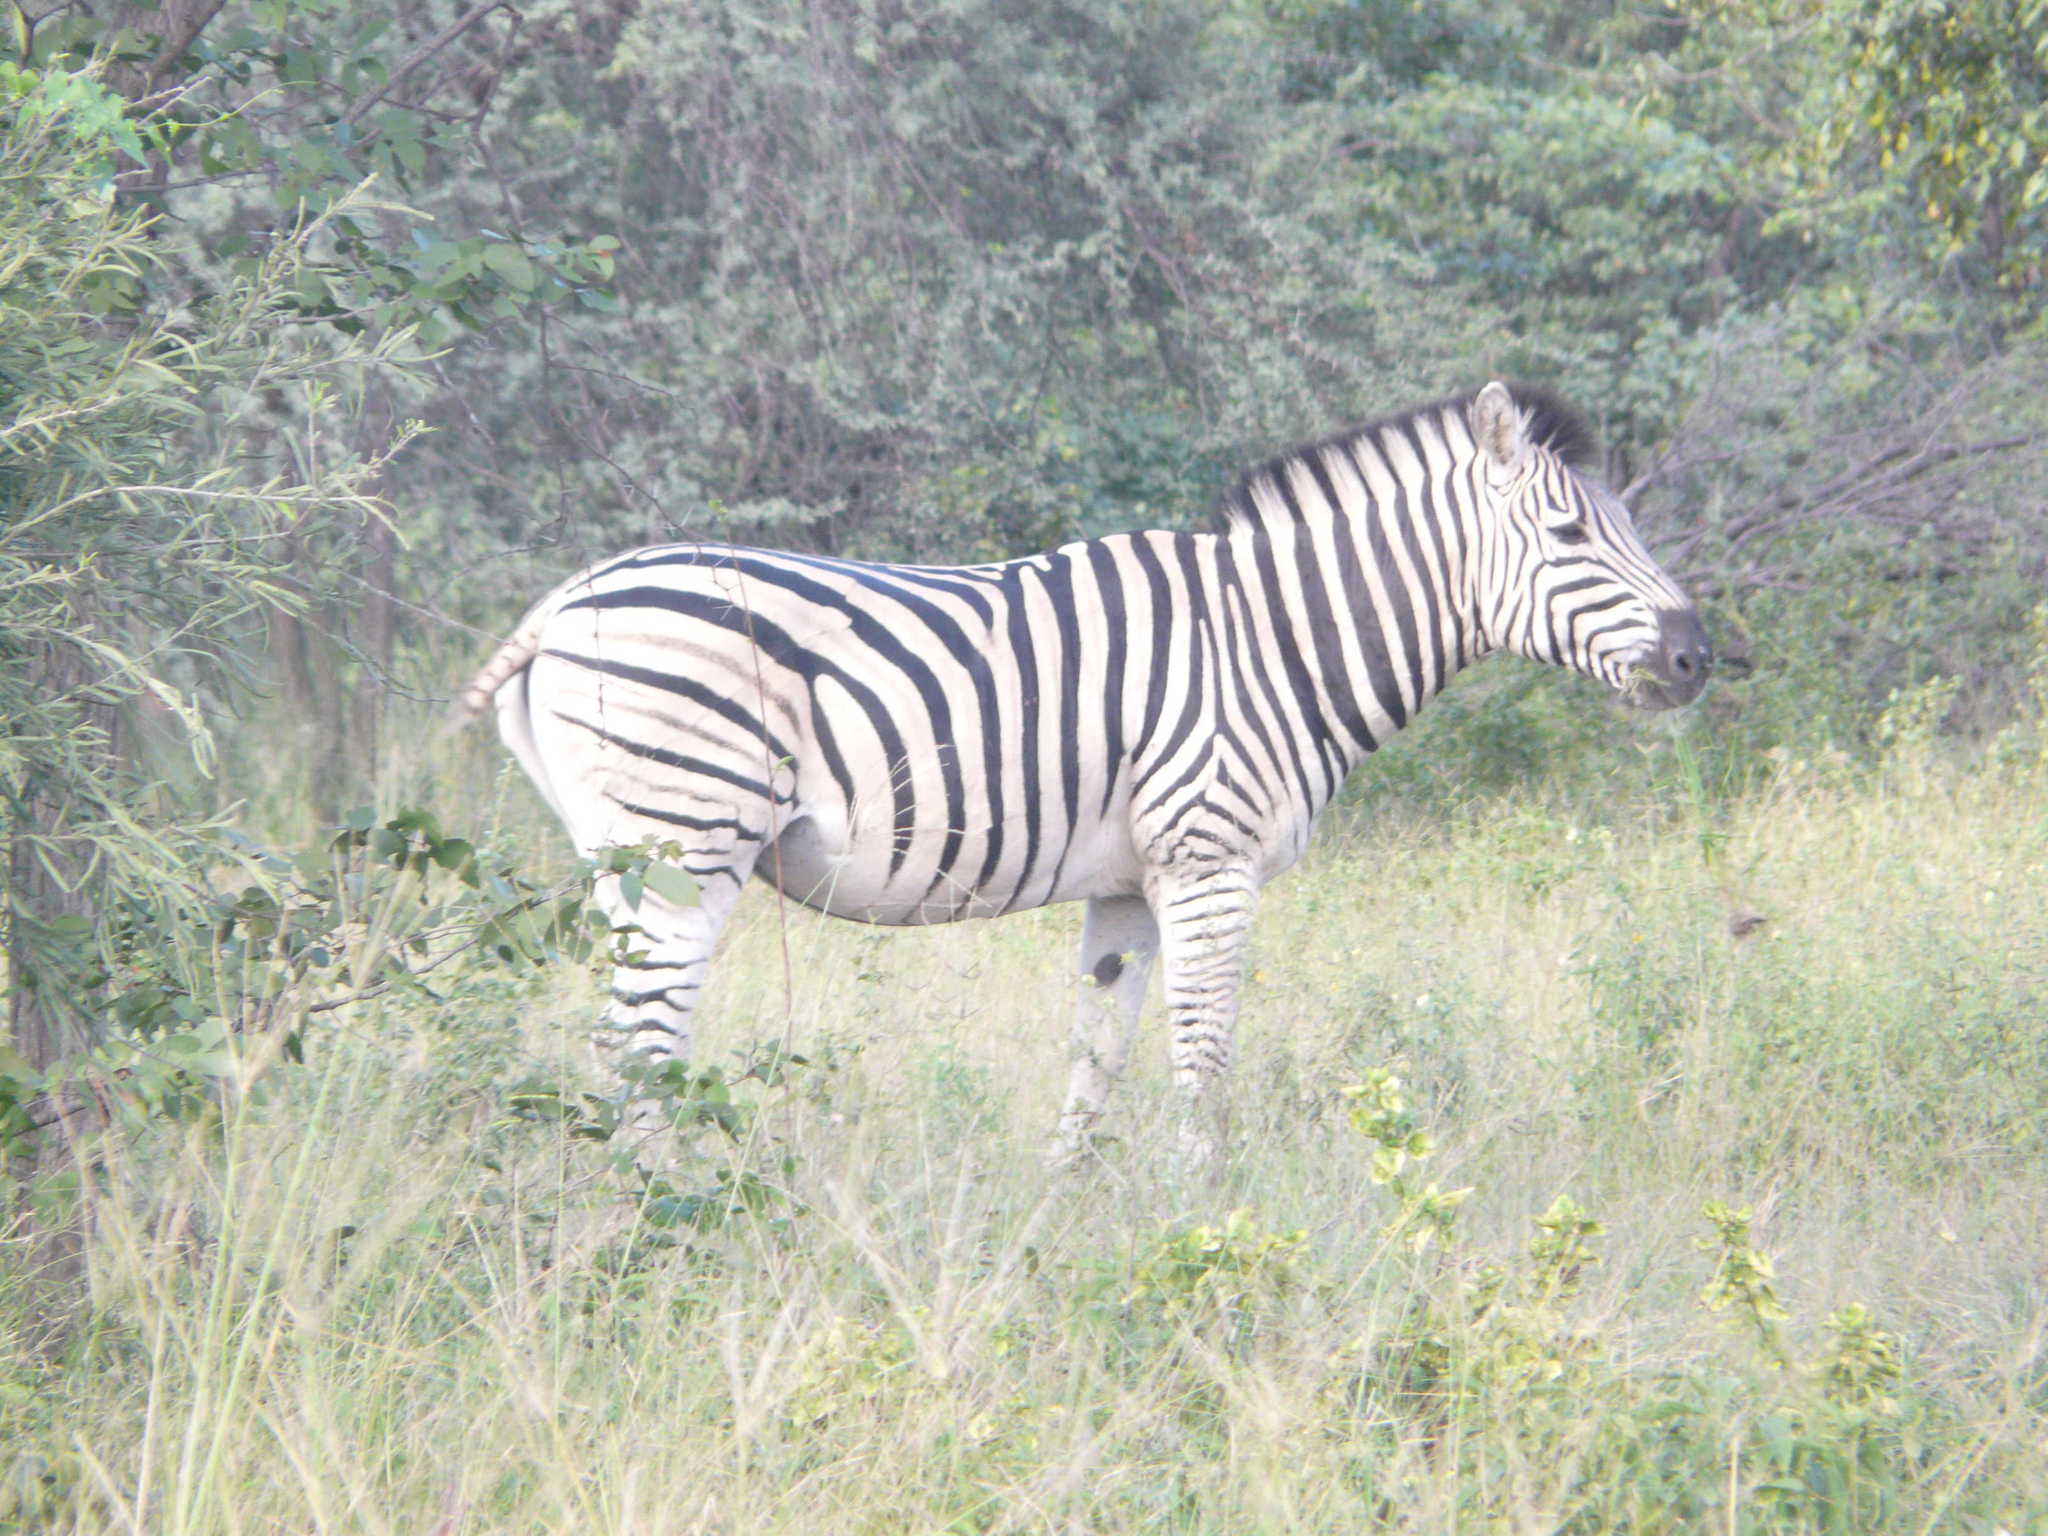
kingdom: Animalia
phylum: Chordata
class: Mammalia
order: Perissodactyla
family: Equidae
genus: Equus
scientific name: Equus quagga
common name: Plains zebra
